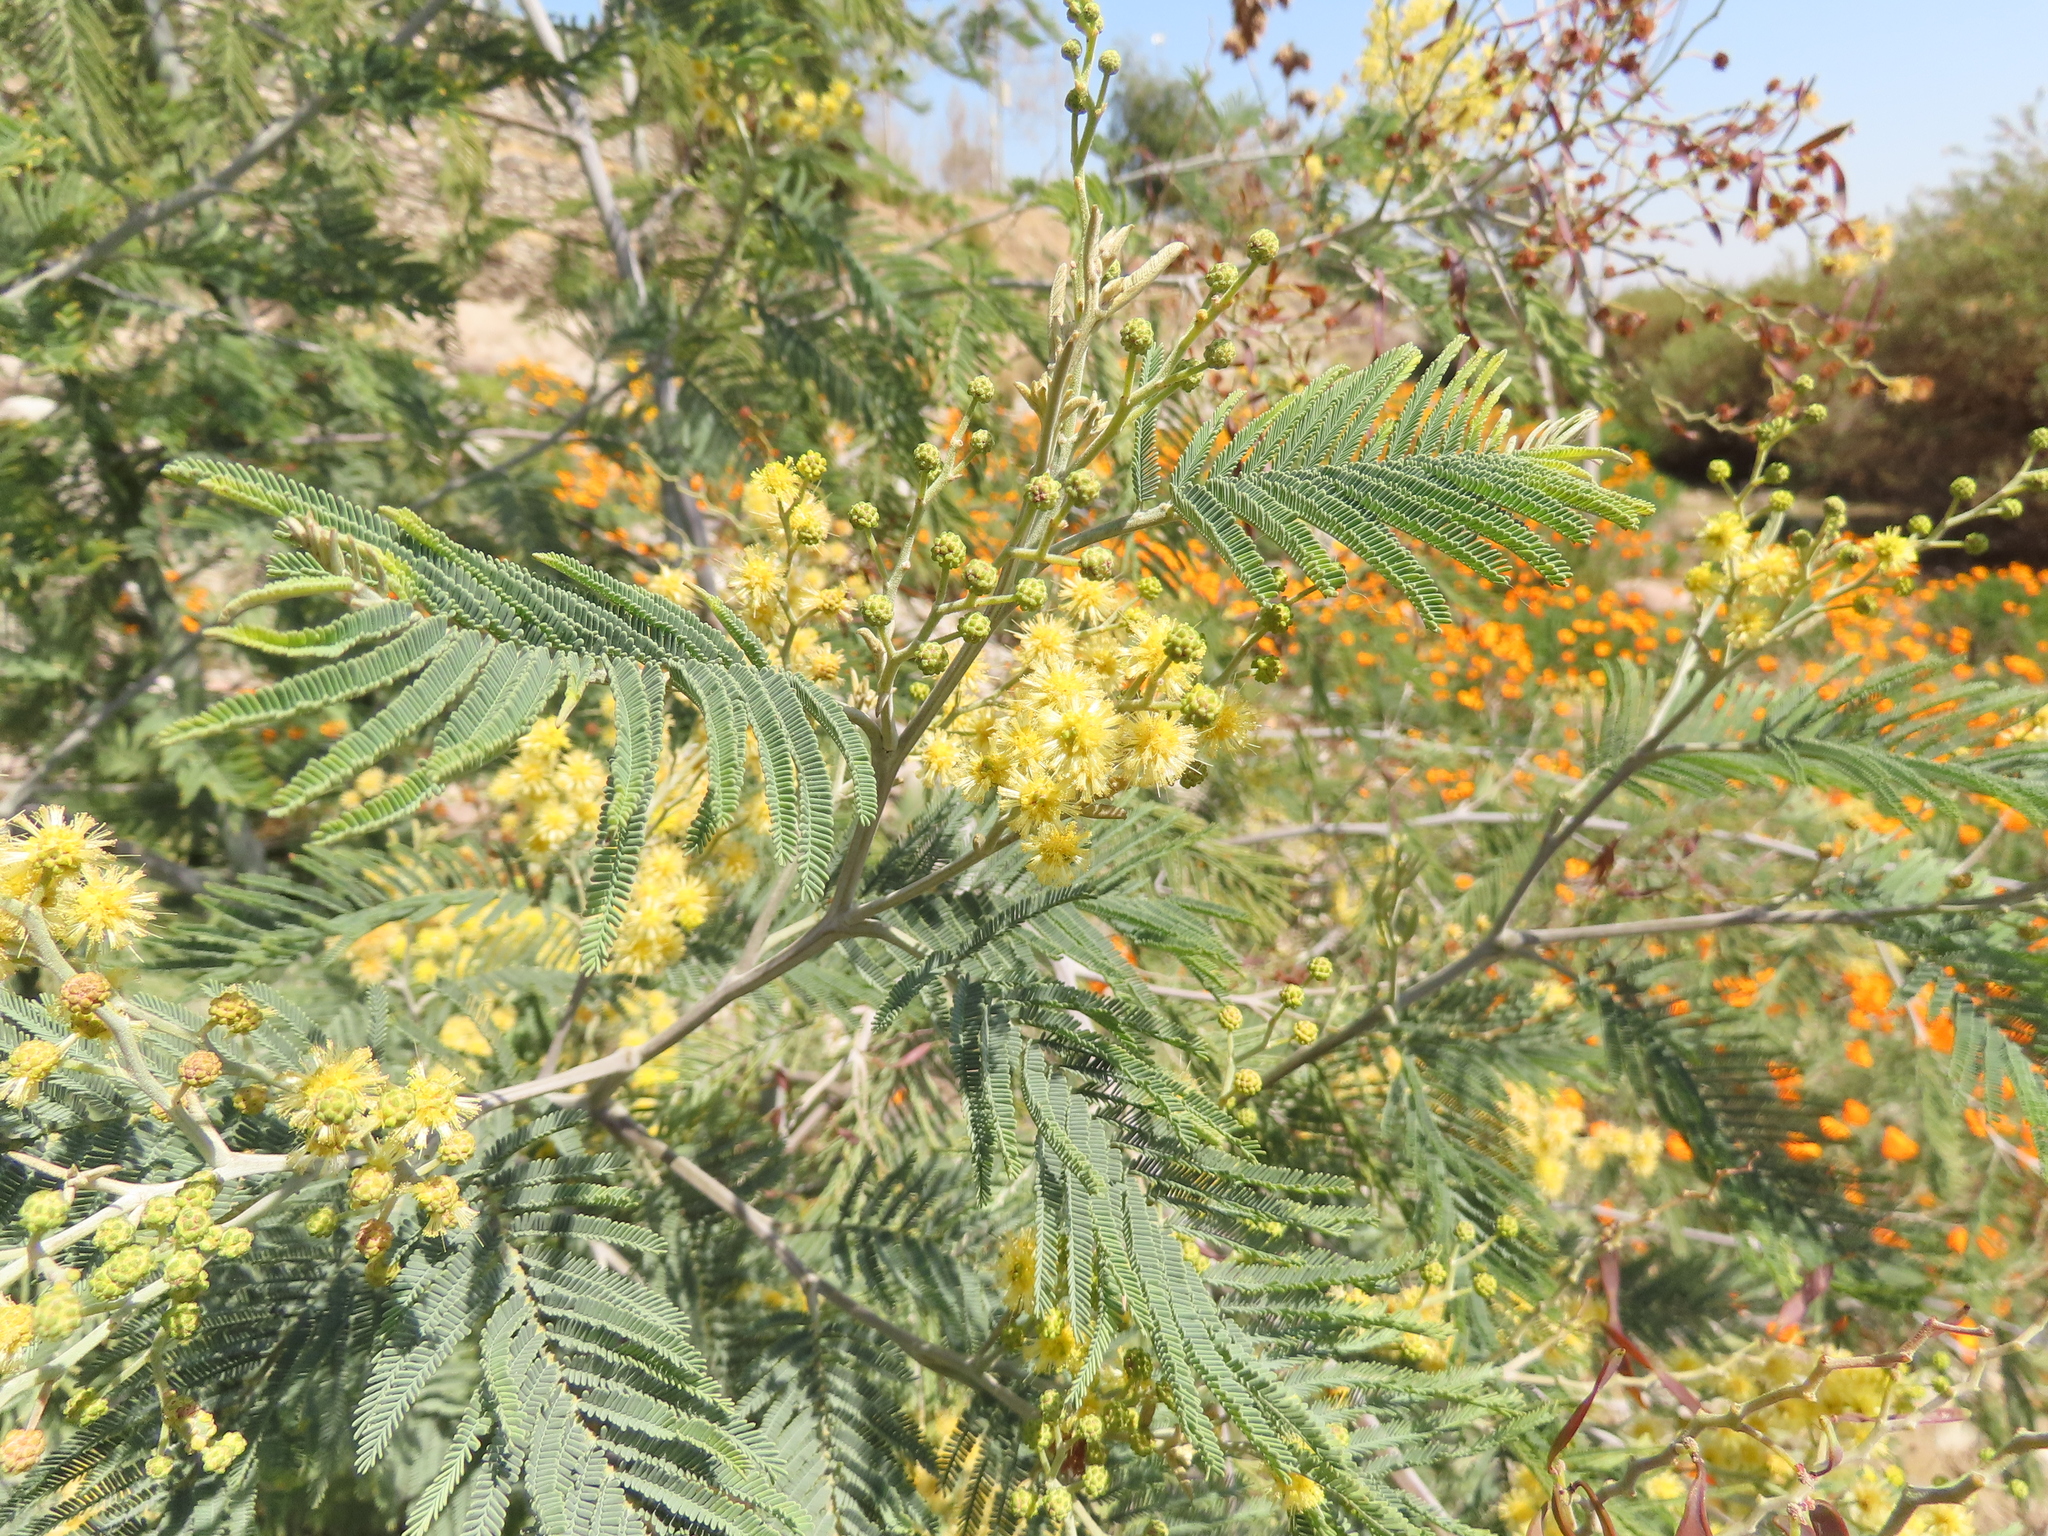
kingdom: Plantae
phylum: Tracheophyta
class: Magnoliopsida
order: Fabales
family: Fabaceae
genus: Acacia
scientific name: Acacia dealbata
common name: Silver wattle
